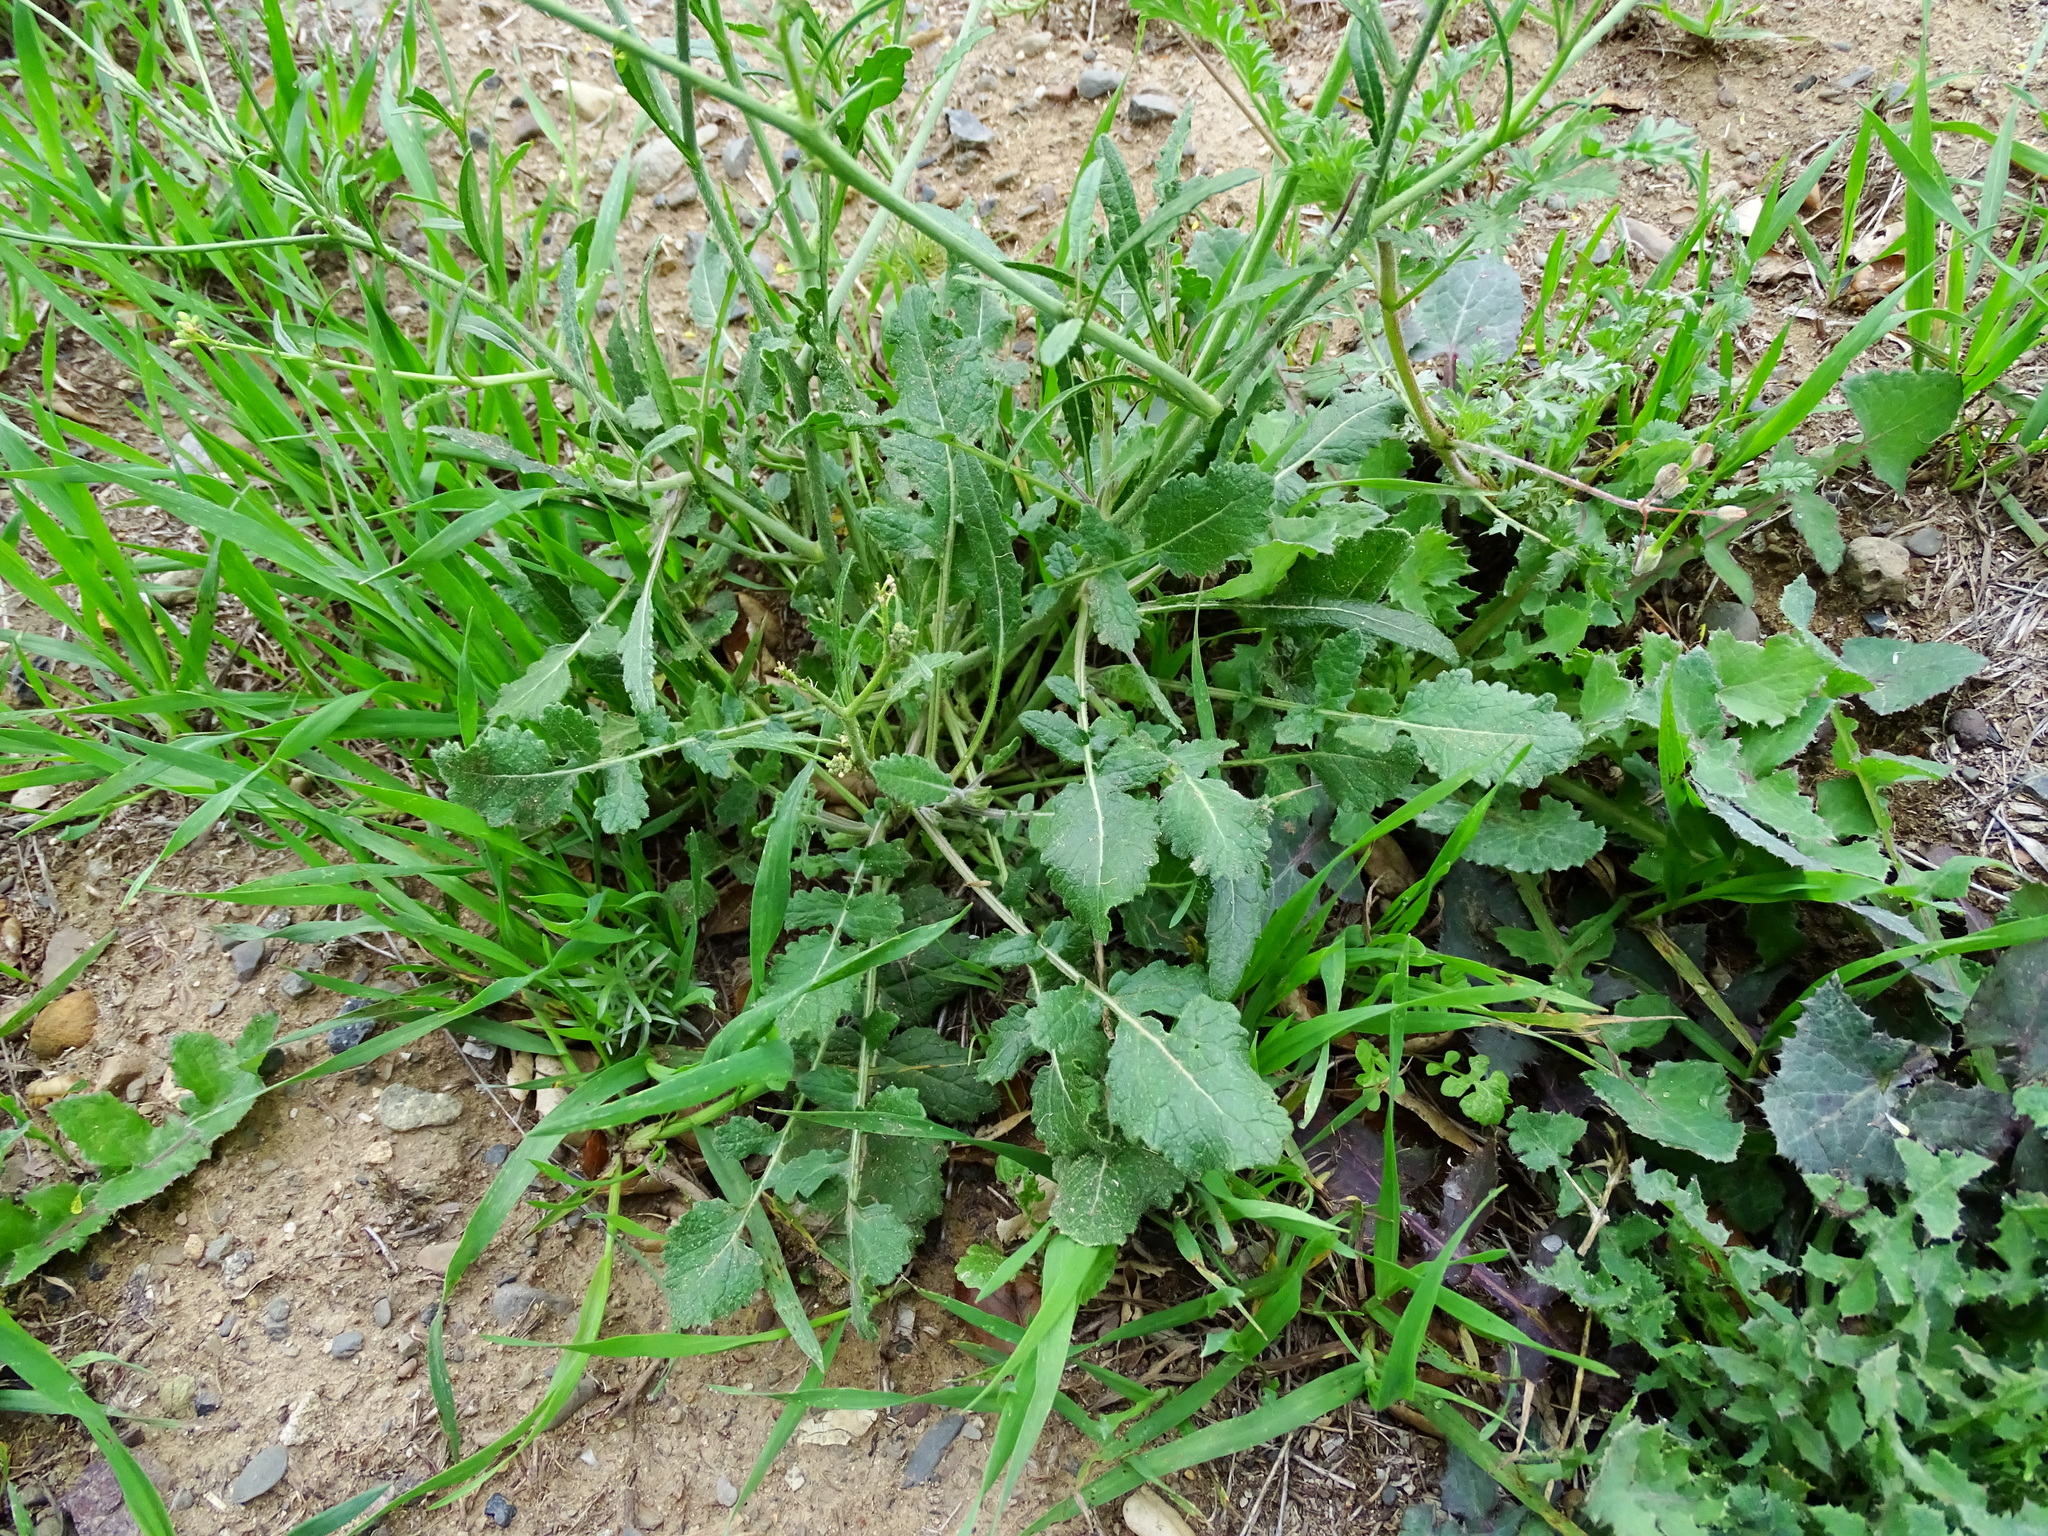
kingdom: Plantae
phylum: Tracheophyta
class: Magnoliopsida
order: Brassicales
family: Brassicaceae
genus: Hirschfeldia
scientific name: Hirschfeldia incana
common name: Hoary mustard
